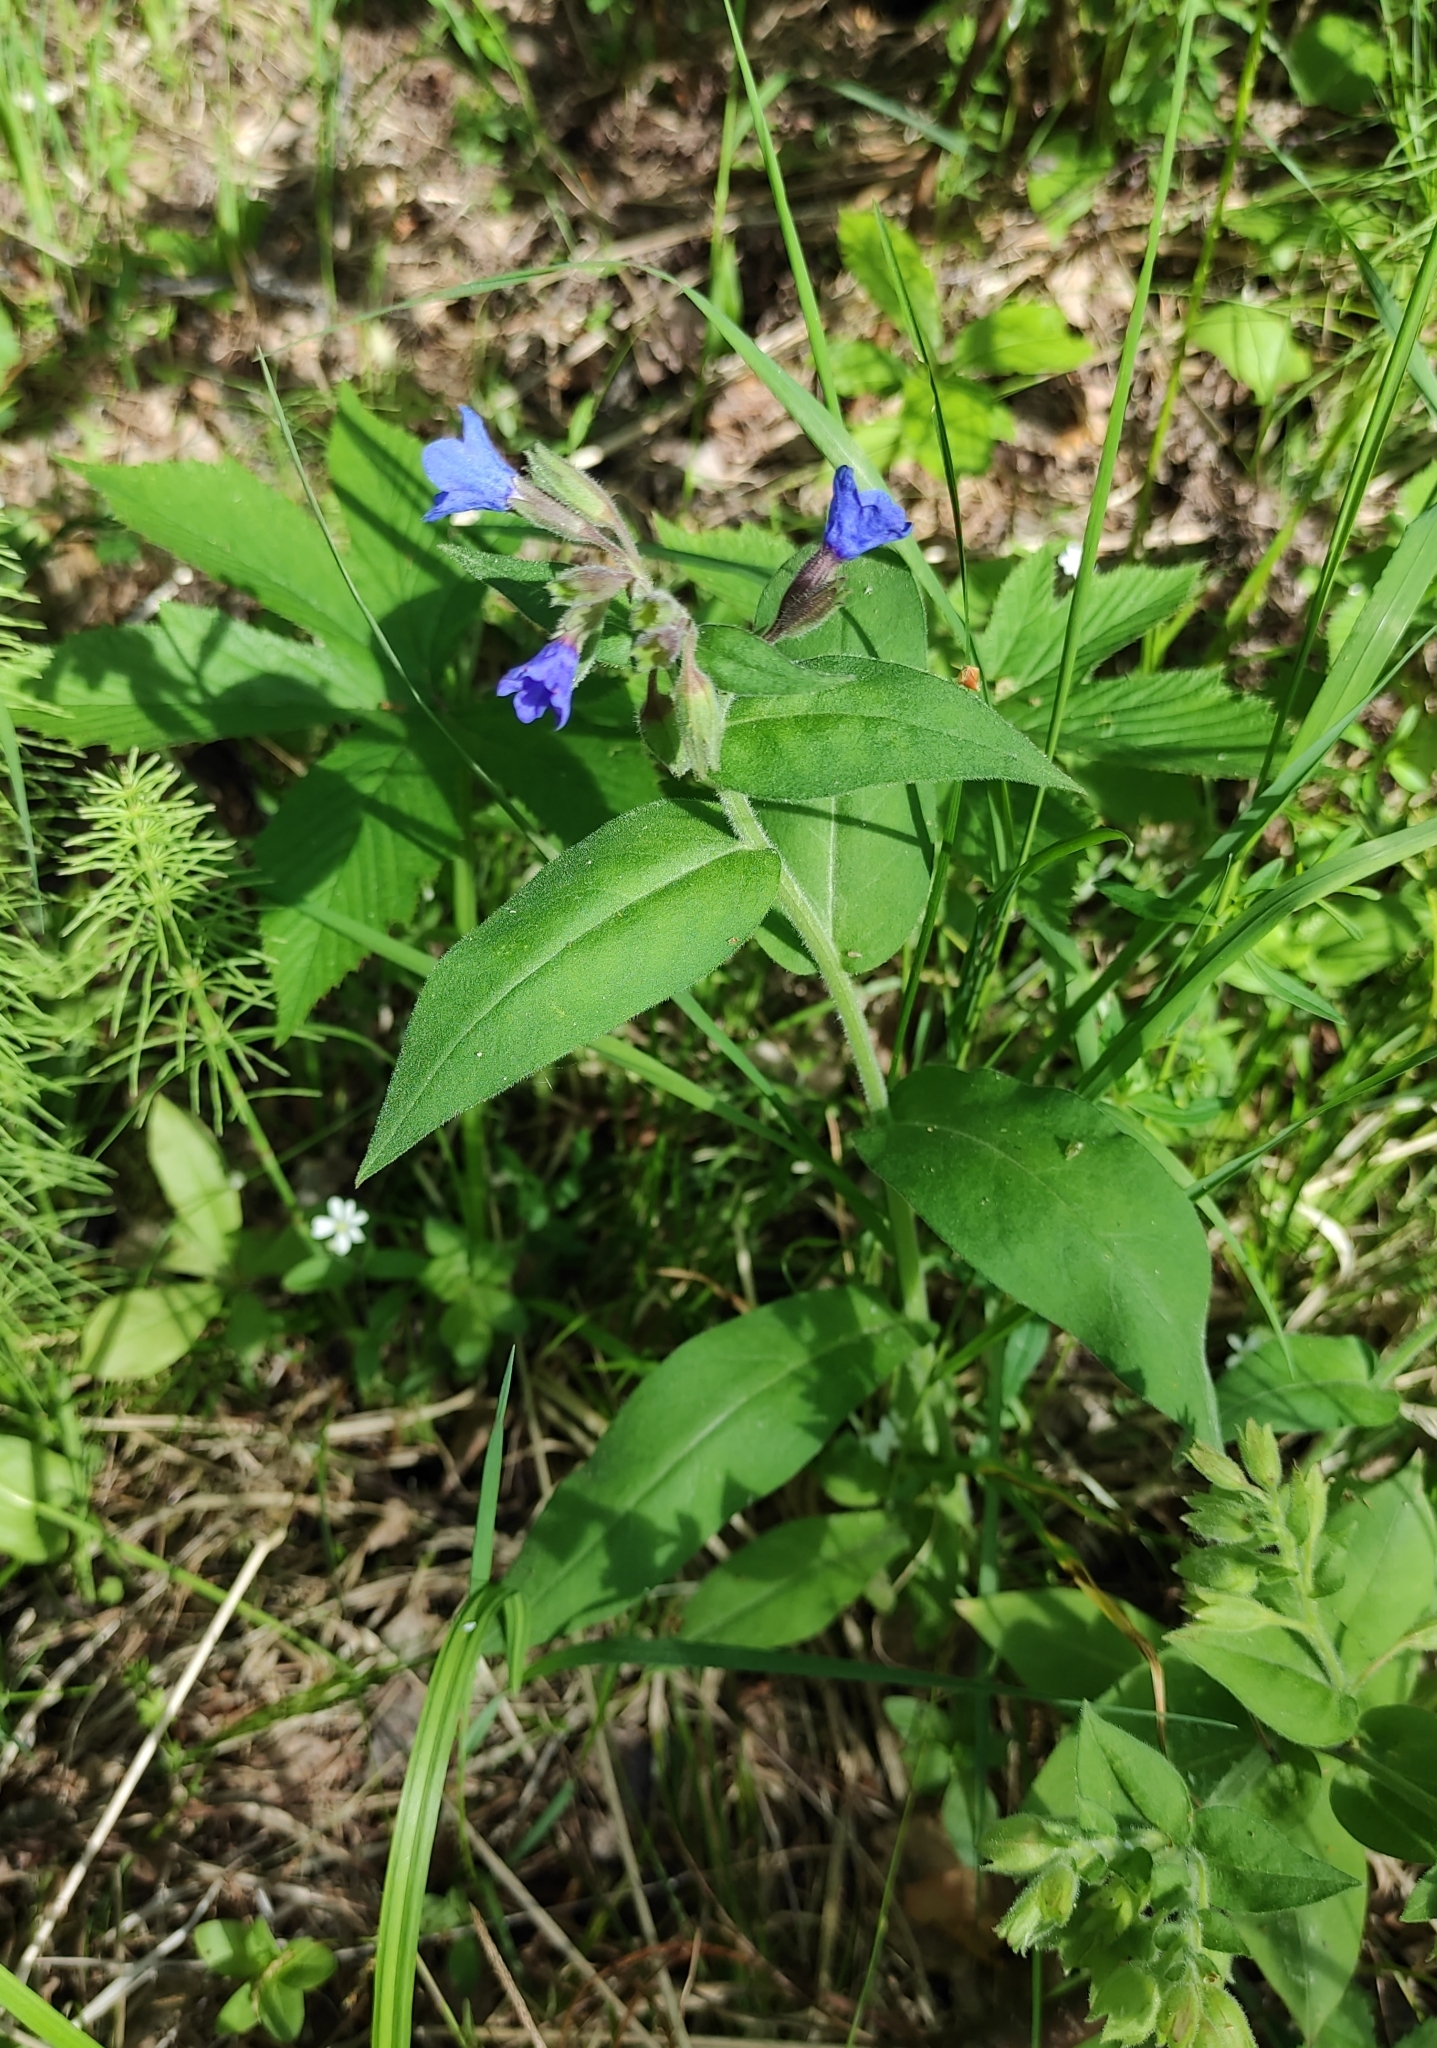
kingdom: Plantae
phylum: Tracheophyta
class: Magnoliopsida
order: Boraginales
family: Boraginaceae
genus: Pulmonaria
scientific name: Pulmonaria mollis
